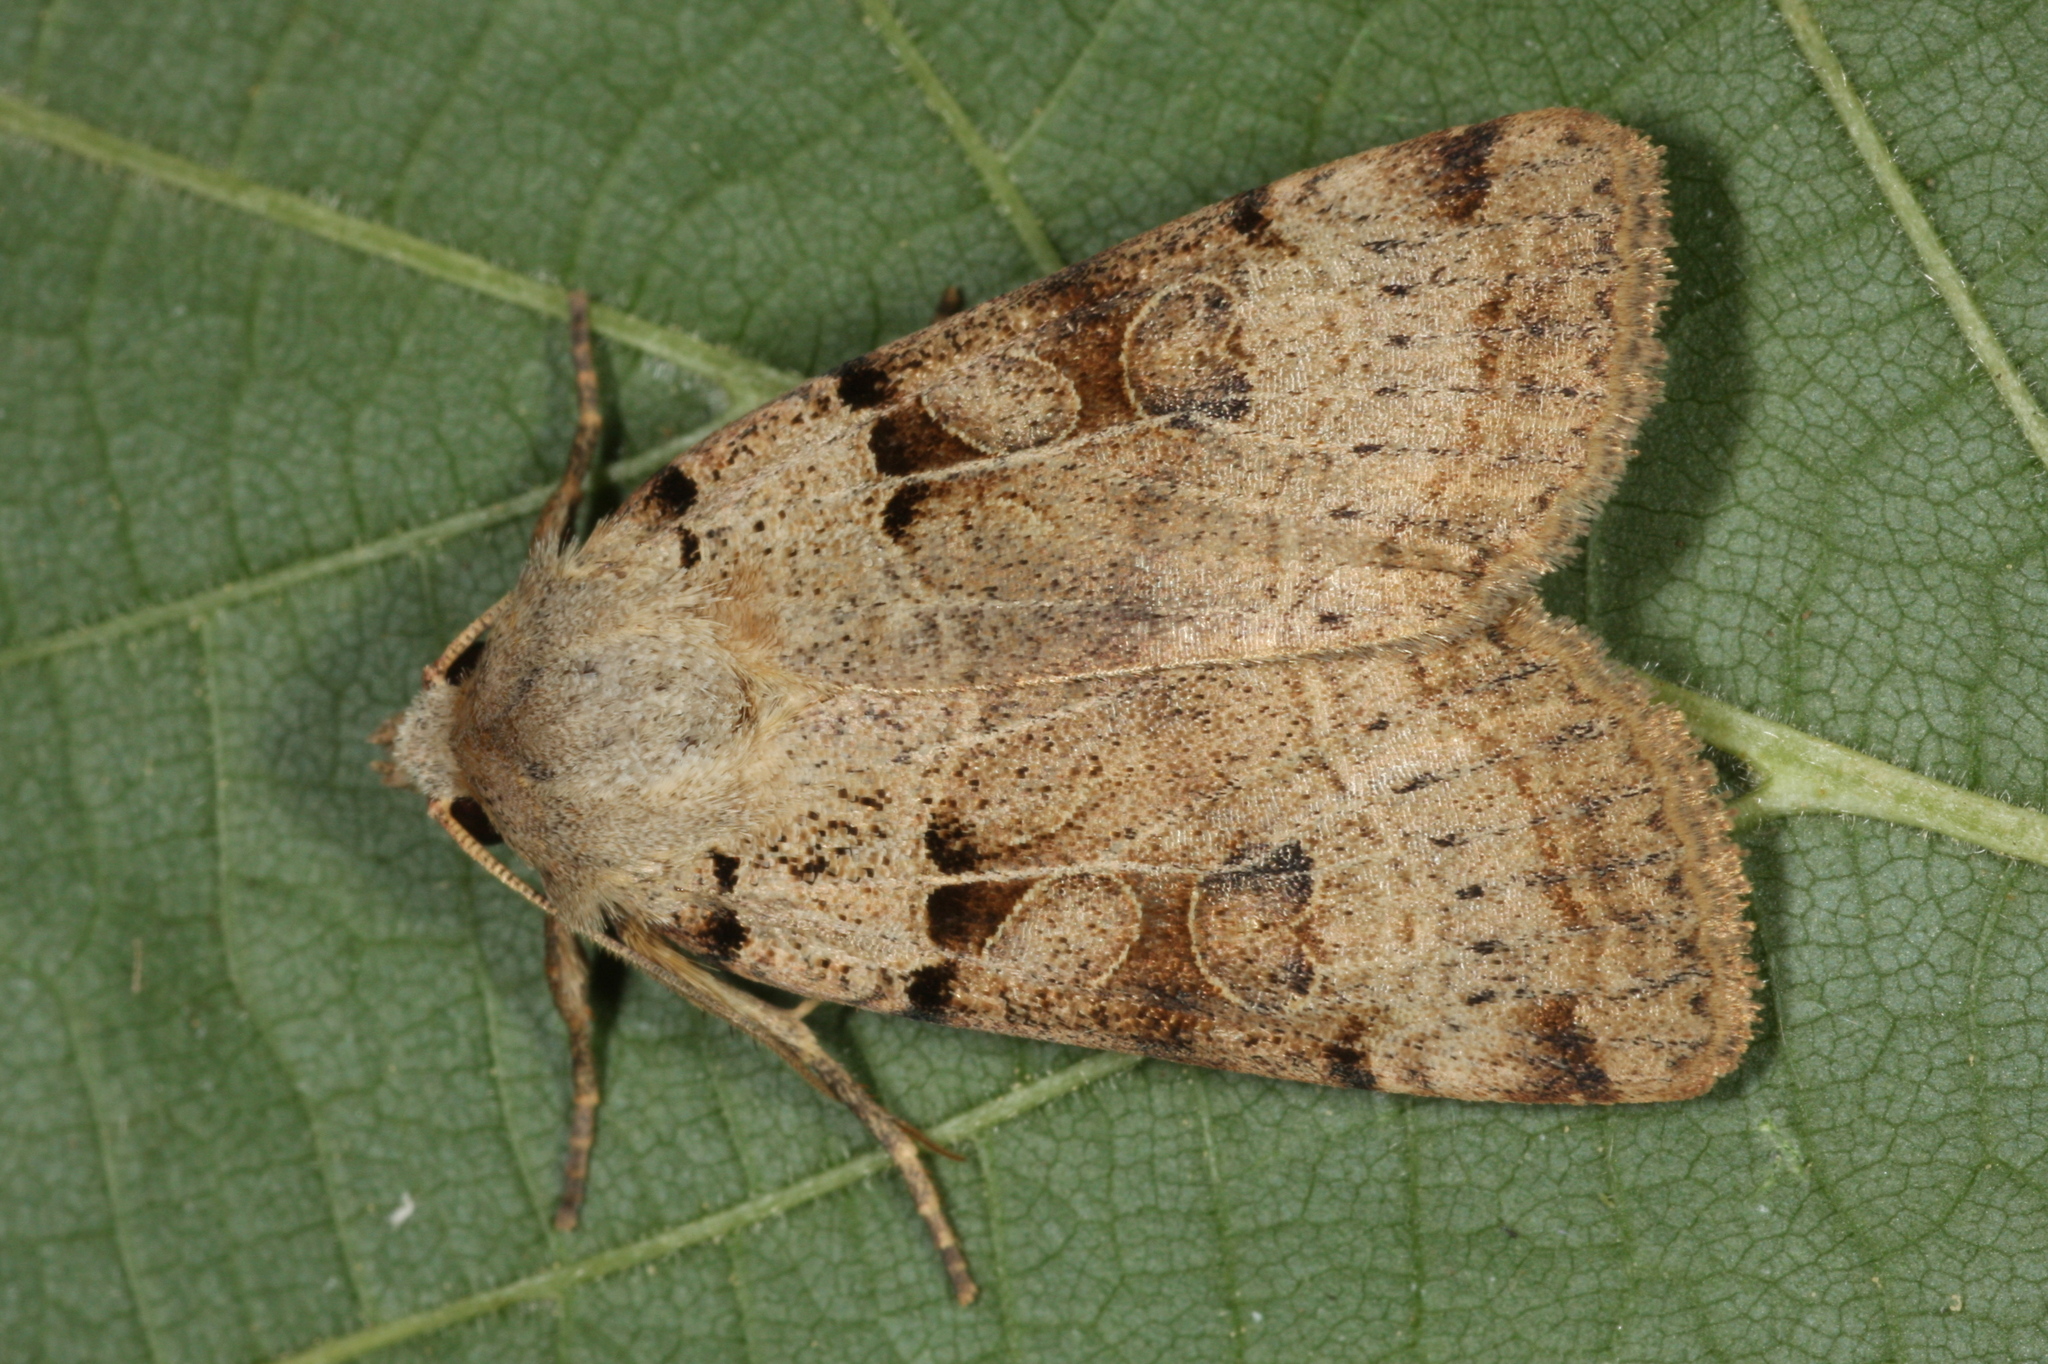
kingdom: Animalia
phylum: Arthropoda
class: Insecta
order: Lepidoptera
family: Noctuidae
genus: Eugnorisma
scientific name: Eugnorisma depuncta
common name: Plain clay
